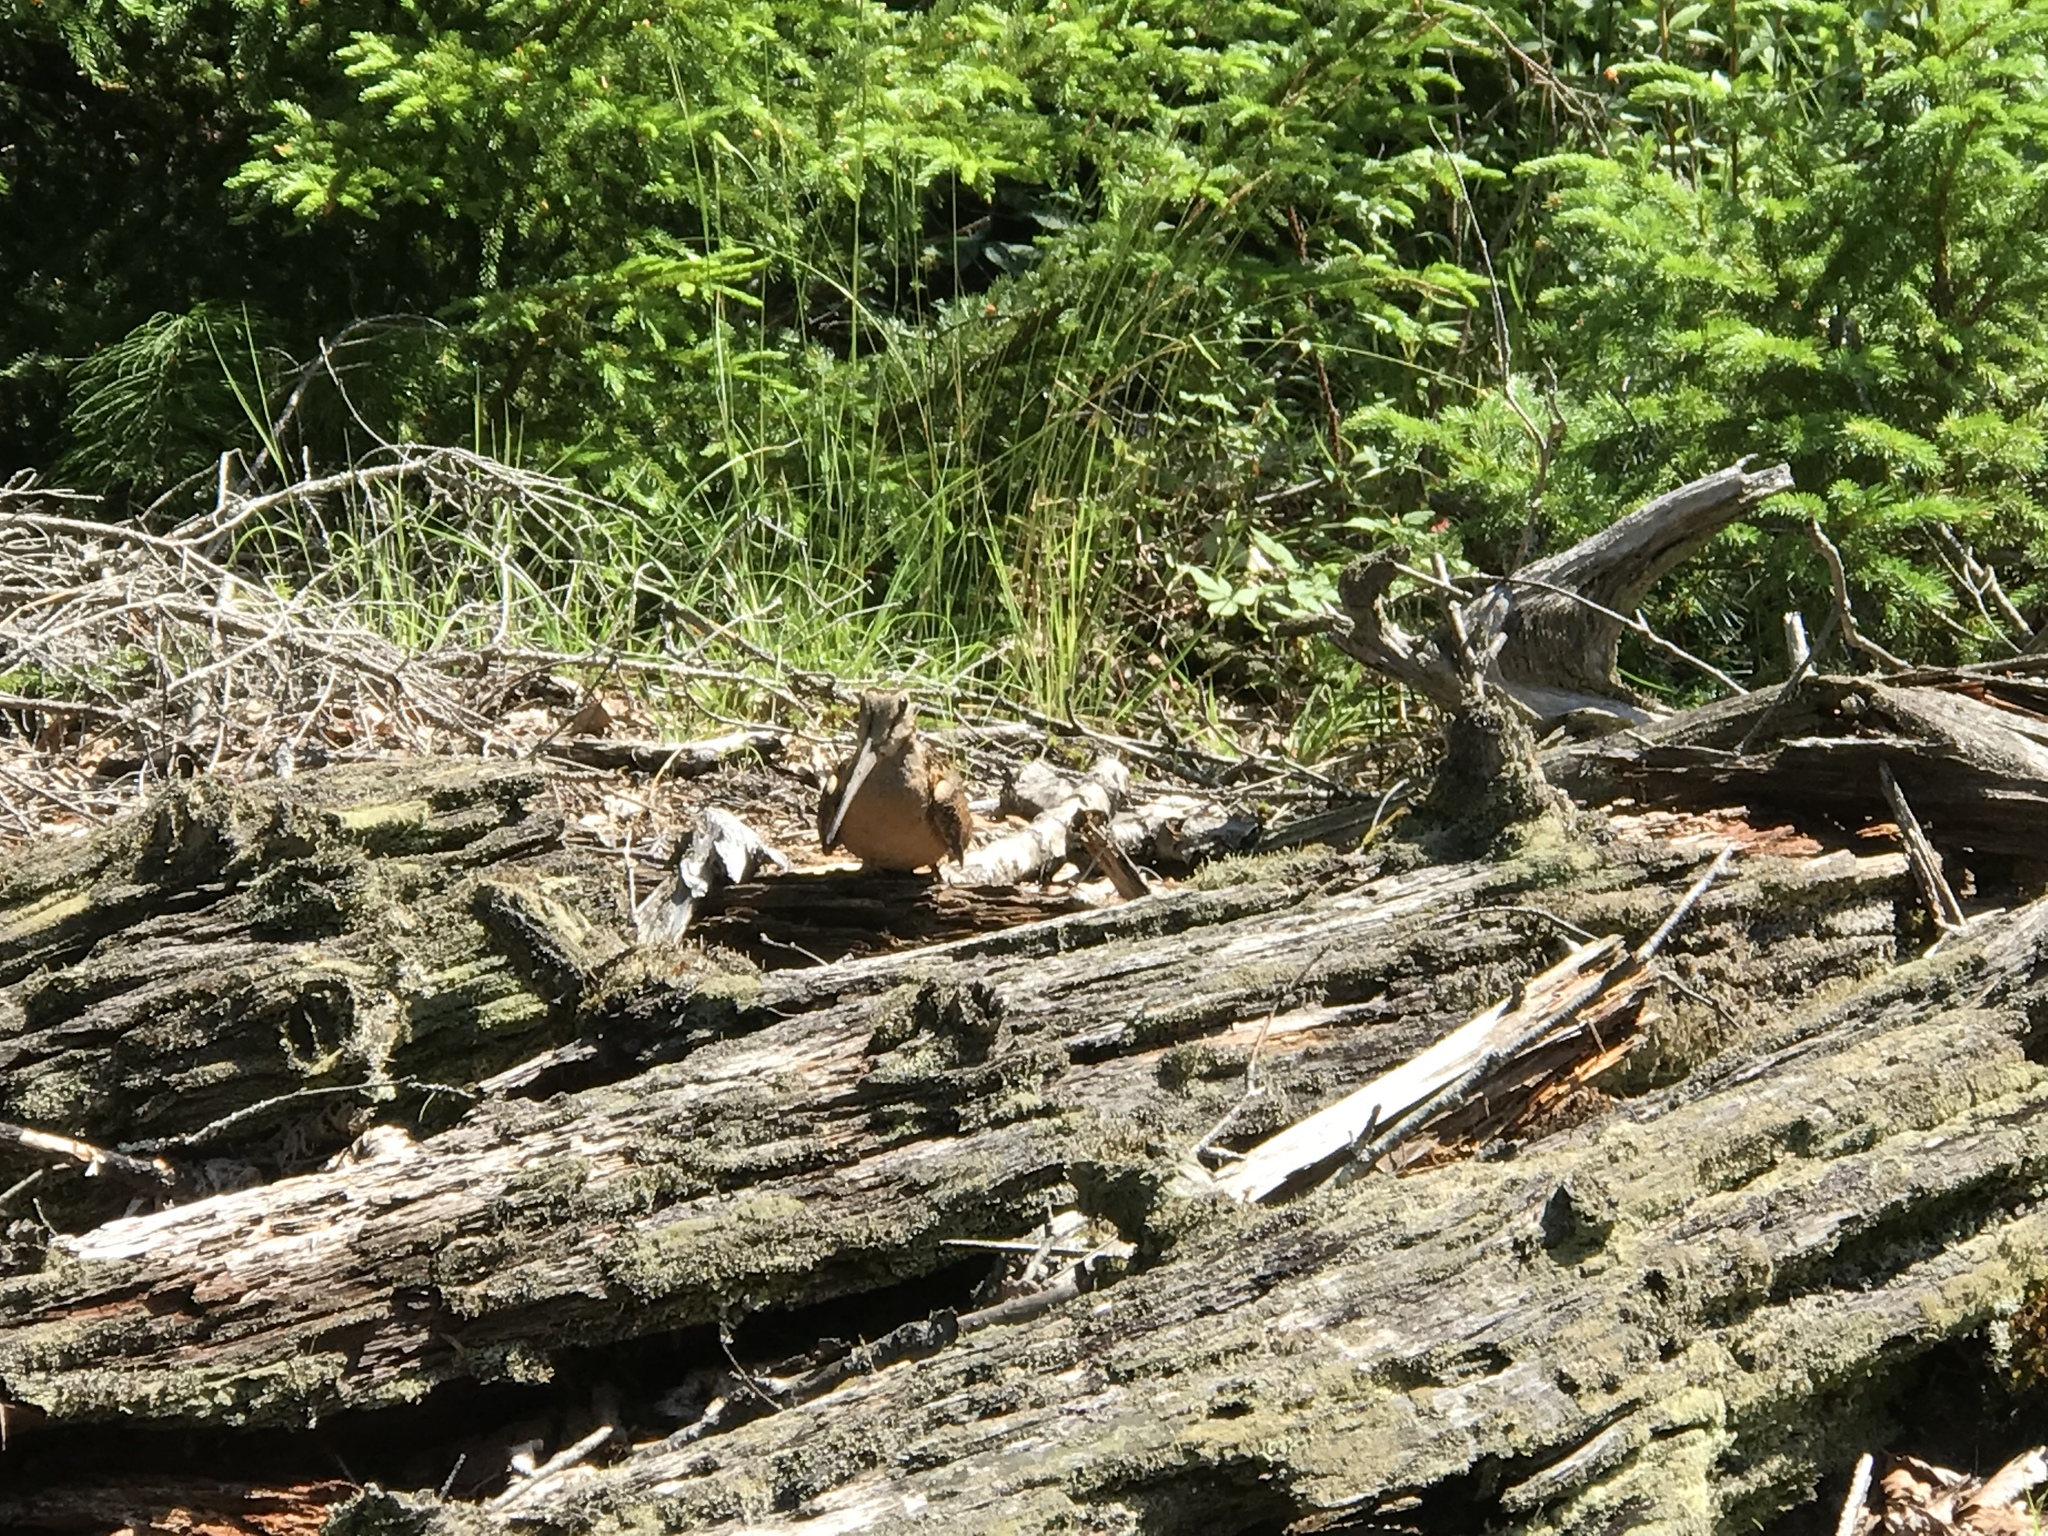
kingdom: Animalia
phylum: Chordata
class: Aves
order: Charadriiformes
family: Scolopacidae
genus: Scolopax
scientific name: Scolopax minor
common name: American woodcock
